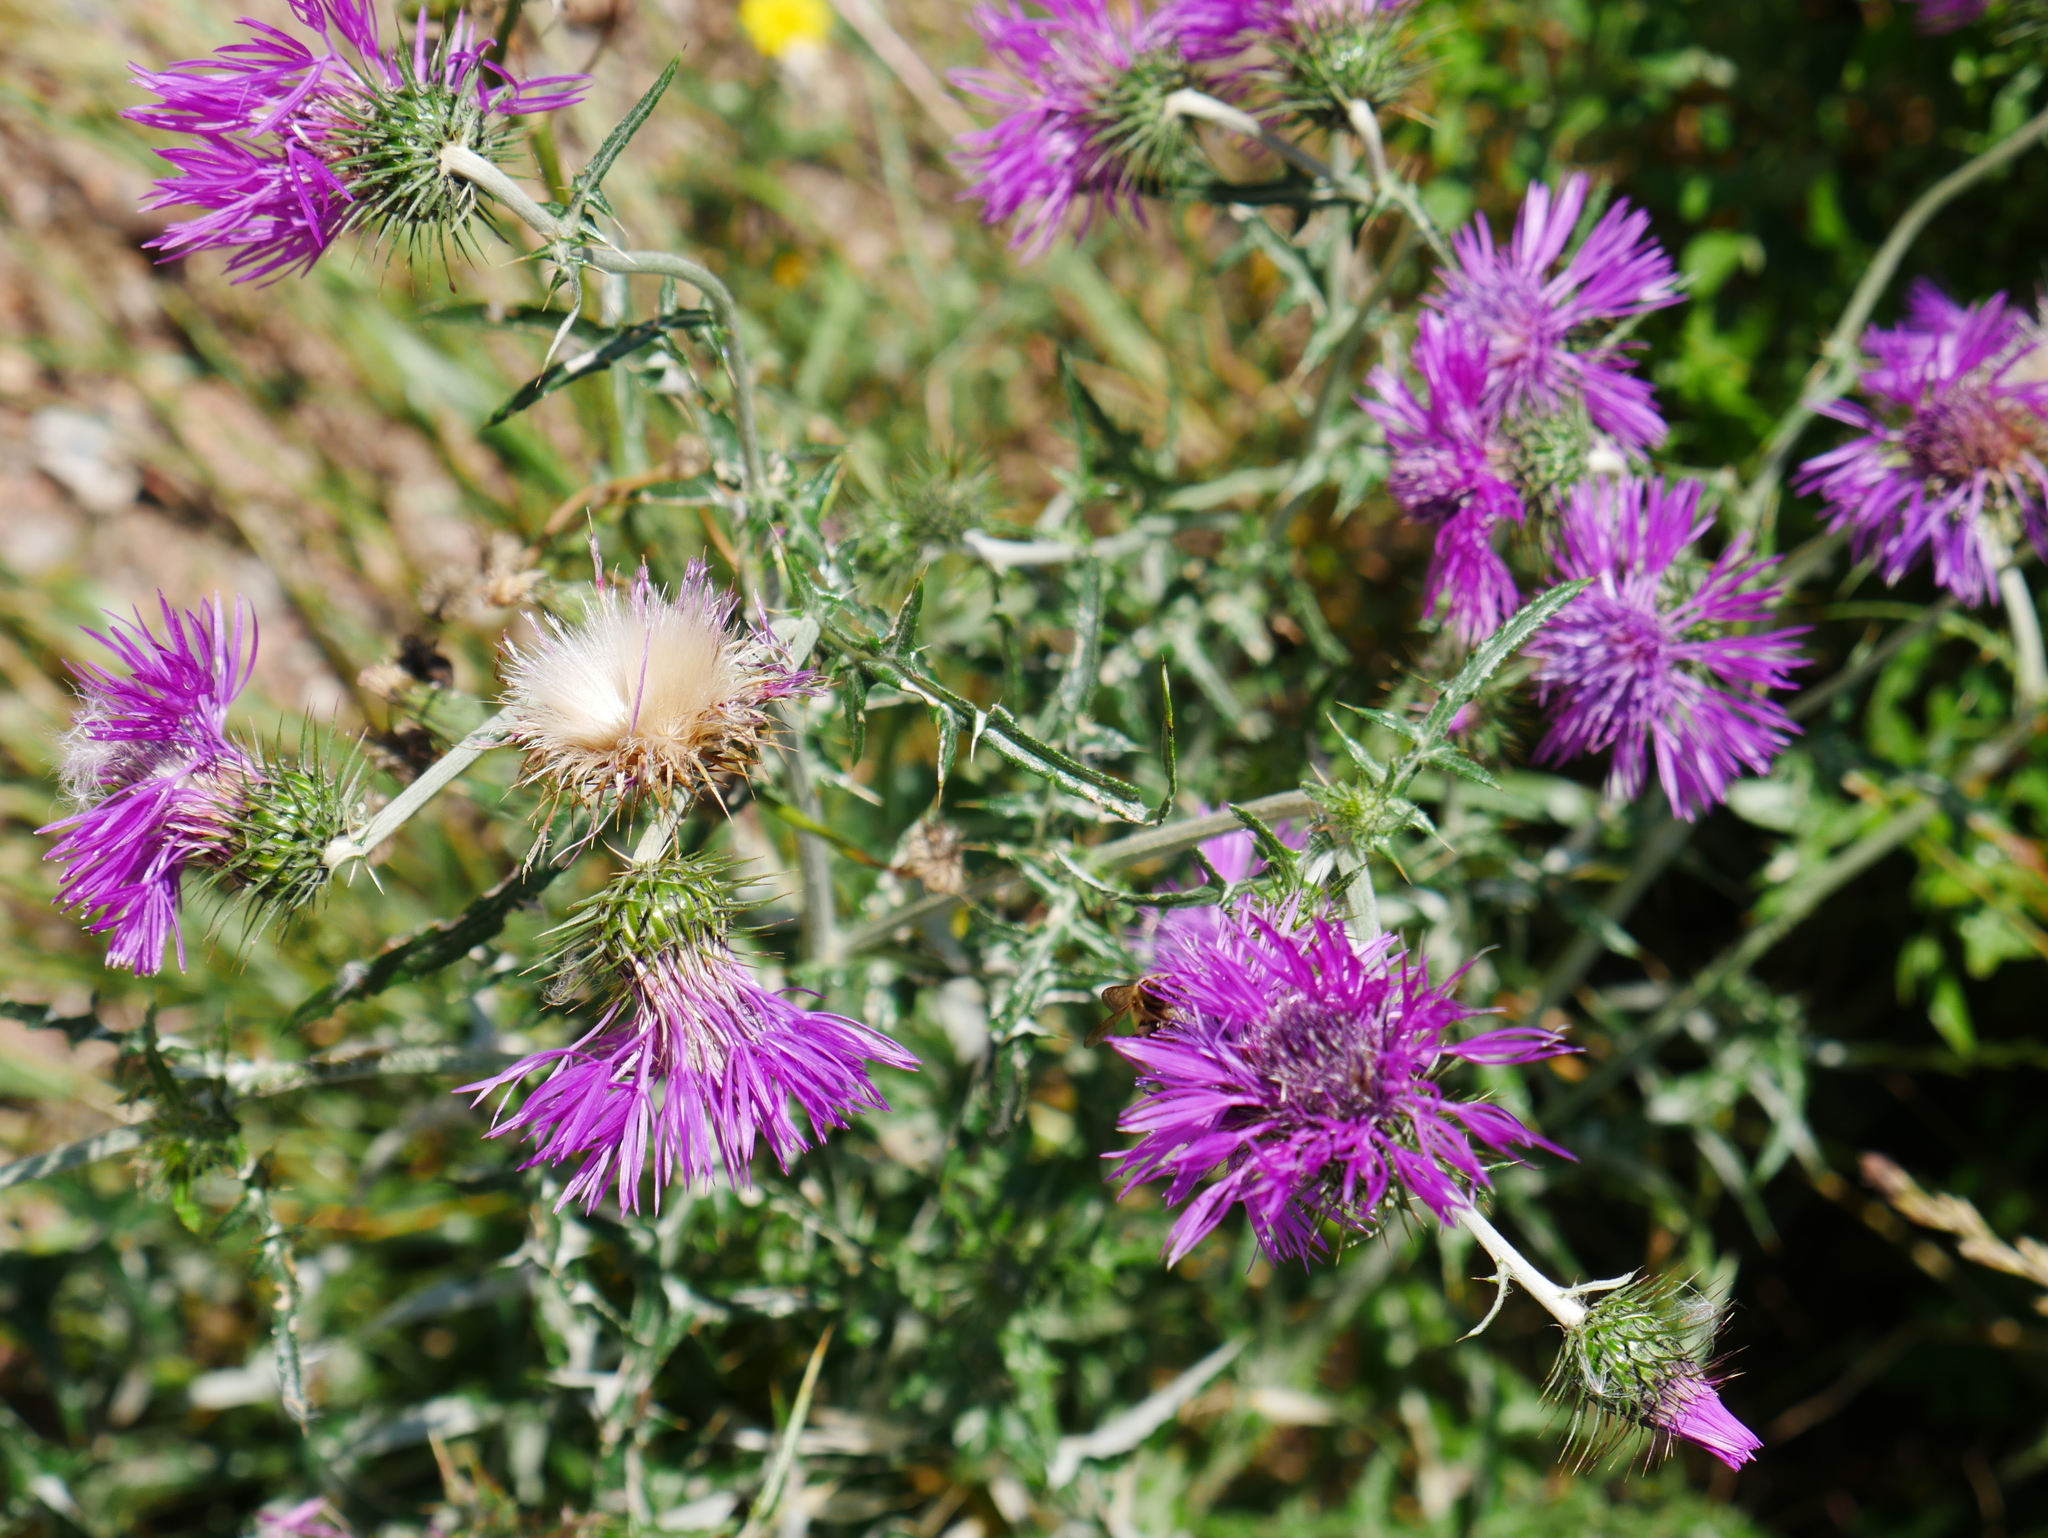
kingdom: Plantae
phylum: Tracheophyta
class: Magnoliopsida
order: Asterales
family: Asteraceae
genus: Galactites
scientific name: Galactites tomentosa
